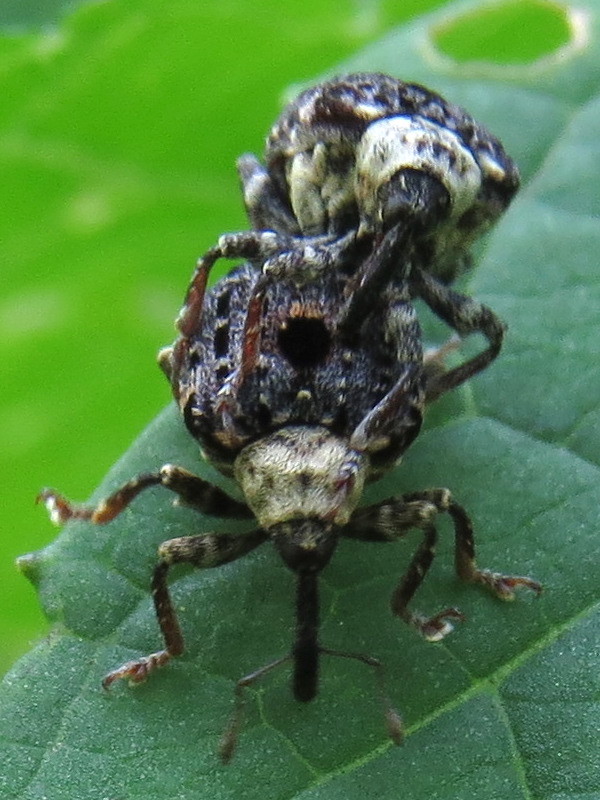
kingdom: Animalia
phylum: Arthropoda
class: Insecta
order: Coleoptera
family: Curculionidae
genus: Cionus
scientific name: Cionus scrophulariae
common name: Common figwort weevil
